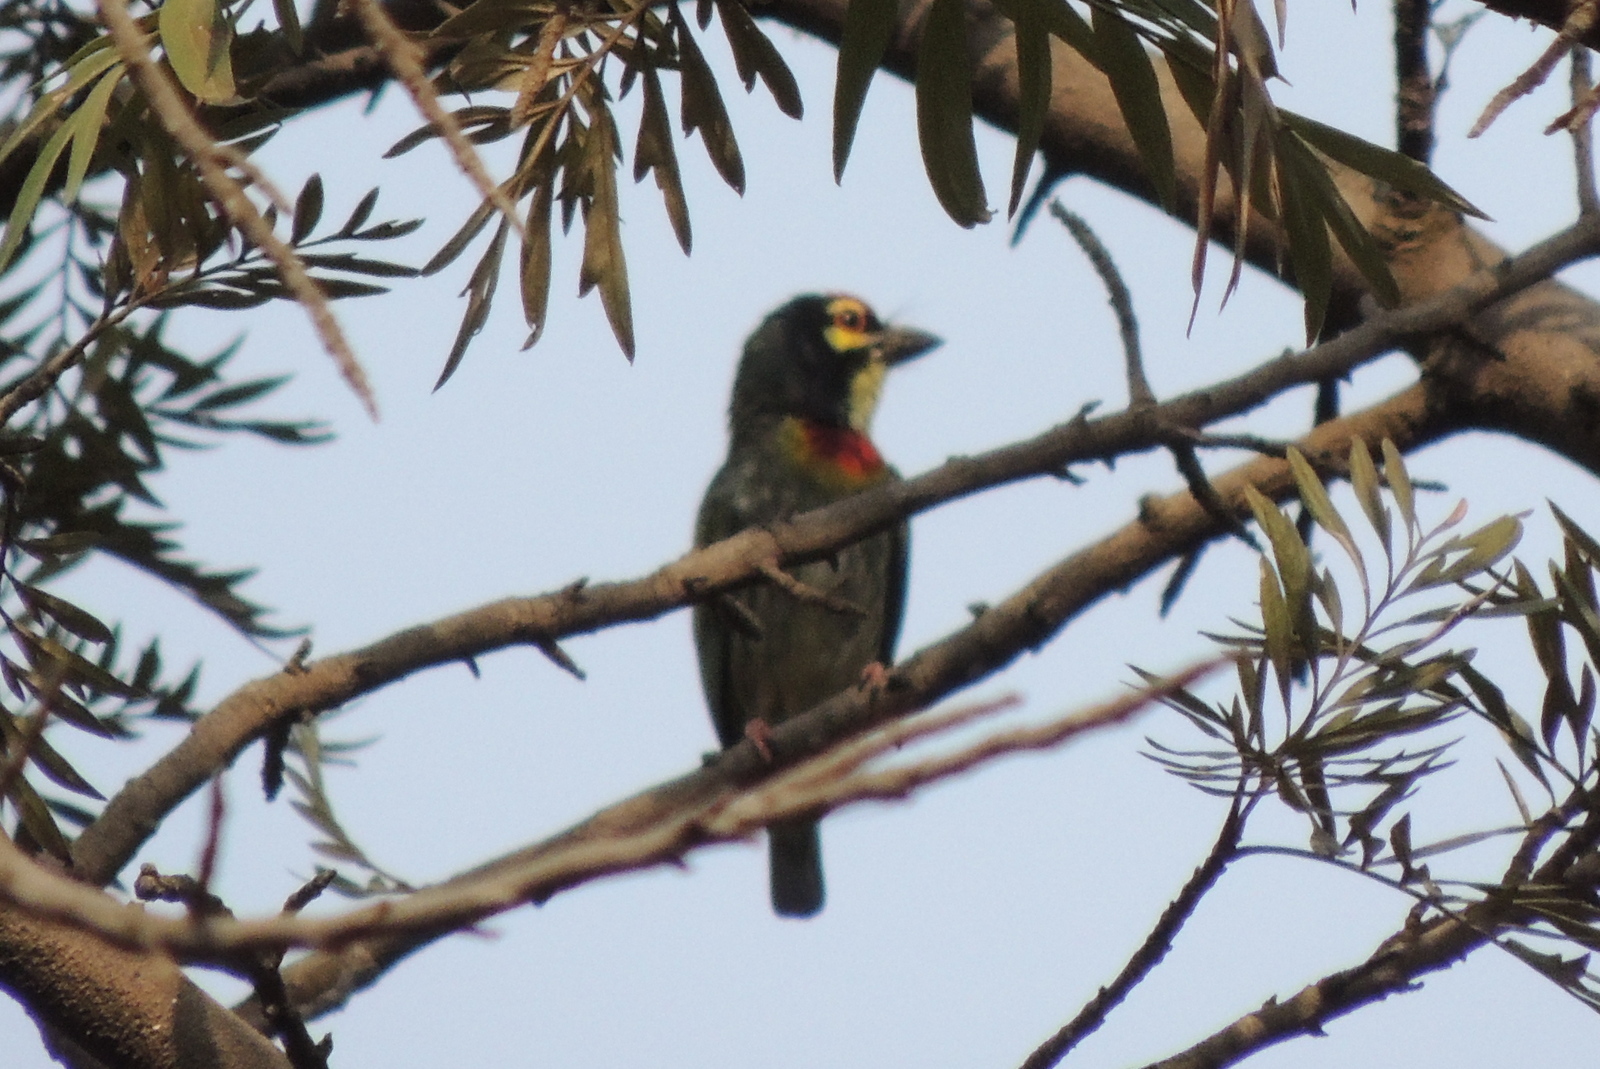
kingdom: Animalia
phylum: Chordata
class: Aves
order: Piciformes
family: Megalaimidae
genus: Psilopogon
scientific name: Psilopogon haemacephalus
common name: Coppersmith barbet
